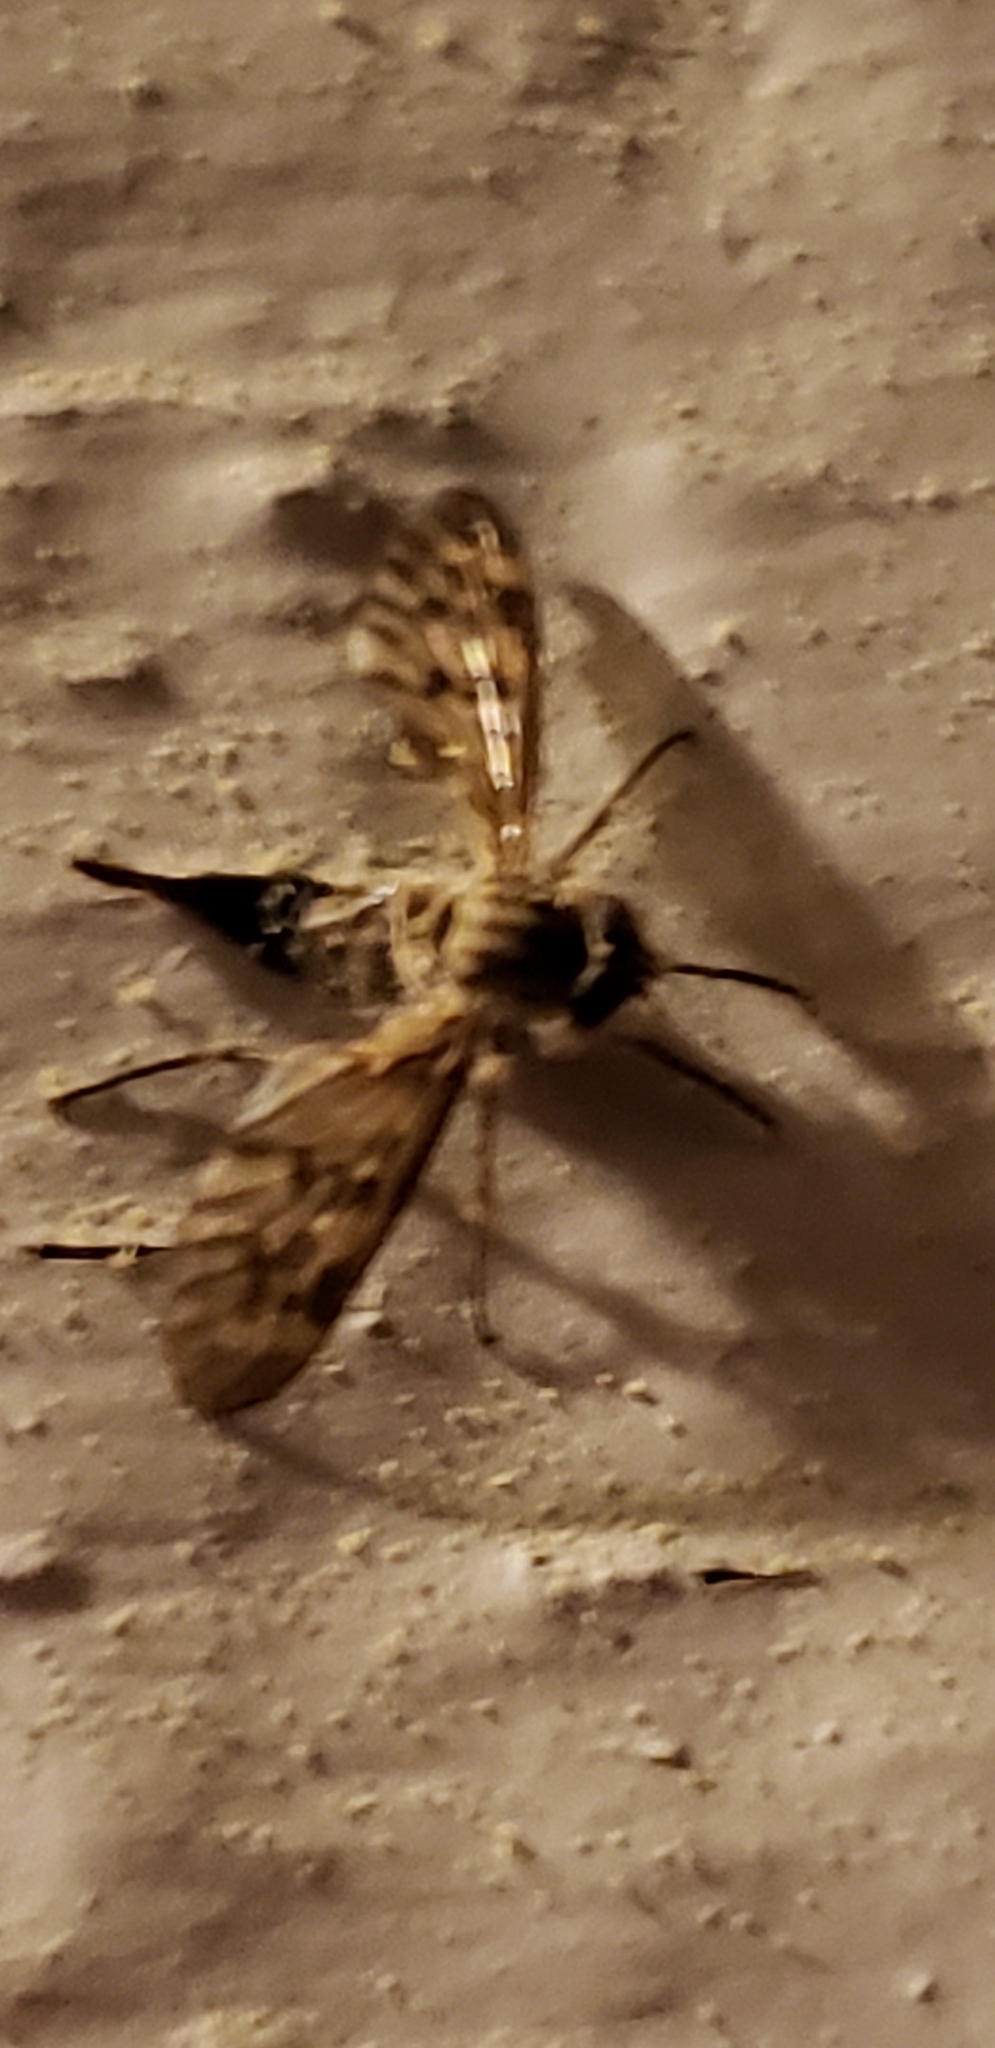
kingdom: Animalia
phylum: Arthropoda
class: Insecta
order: Diptera
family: Rhagionidae
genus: Rhagio
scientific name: Rhagio punctipennis
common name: Lesser variegated snipe fly
